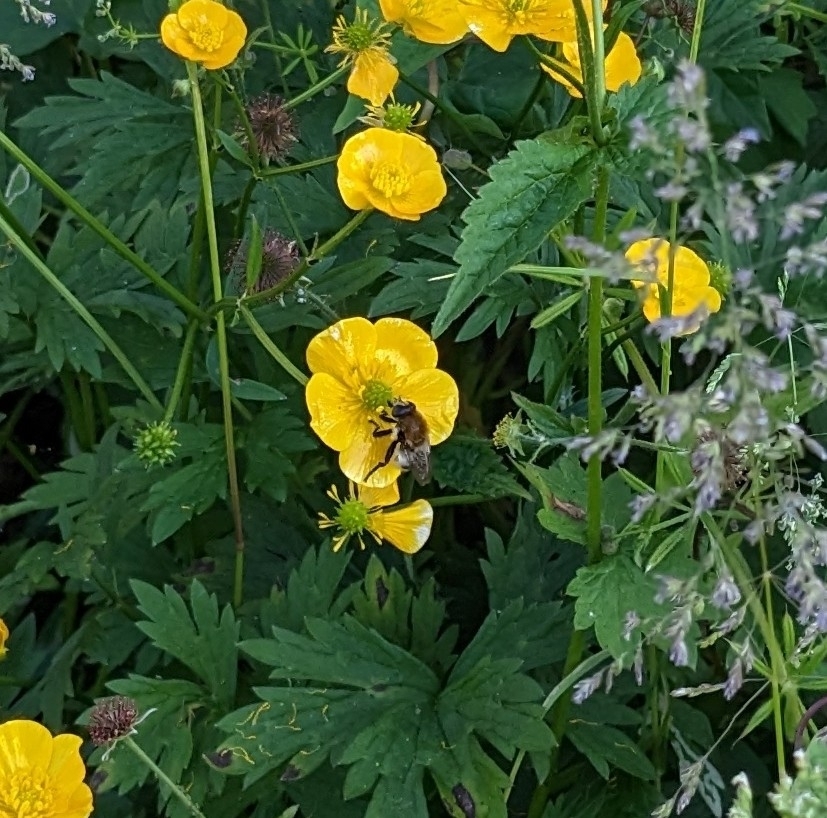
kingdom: Animalia
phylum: Arthropoda
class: Insecta
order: Diptera
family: Syrphidae
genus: Merodon
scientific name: Merodon equestris
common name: Greater bulb-fly
